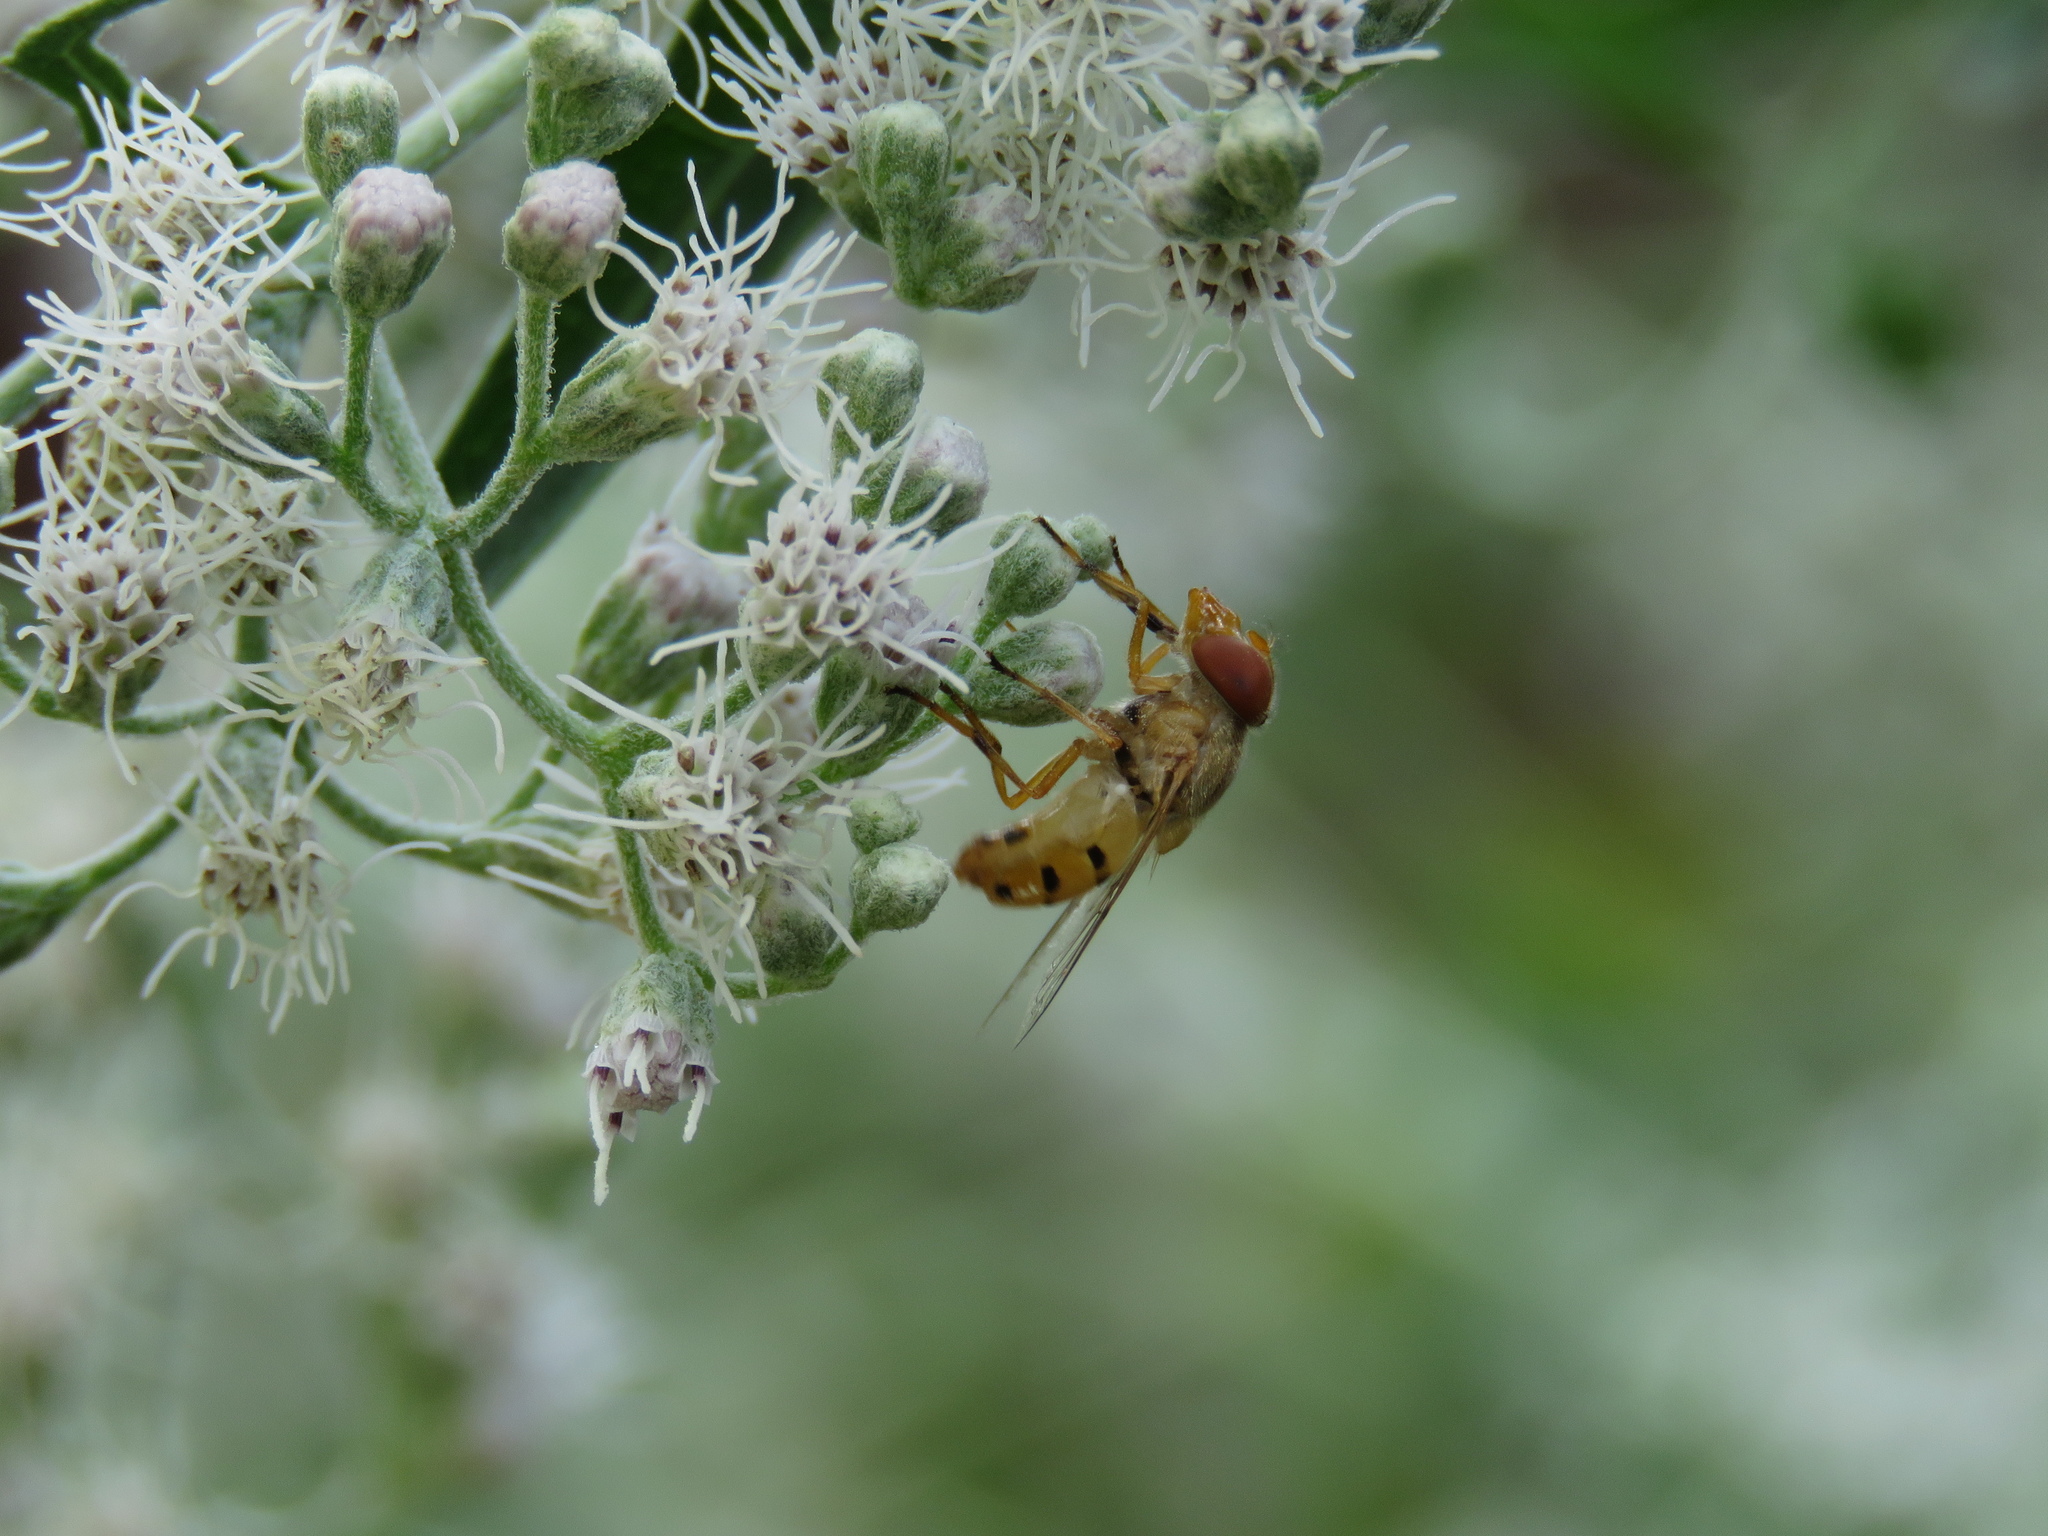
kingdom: Animalia
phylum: Arthropoda
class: Insecta
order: Diptera
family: Syrphidae
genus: Copestylum
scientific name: Copestylum sexmaculatum
